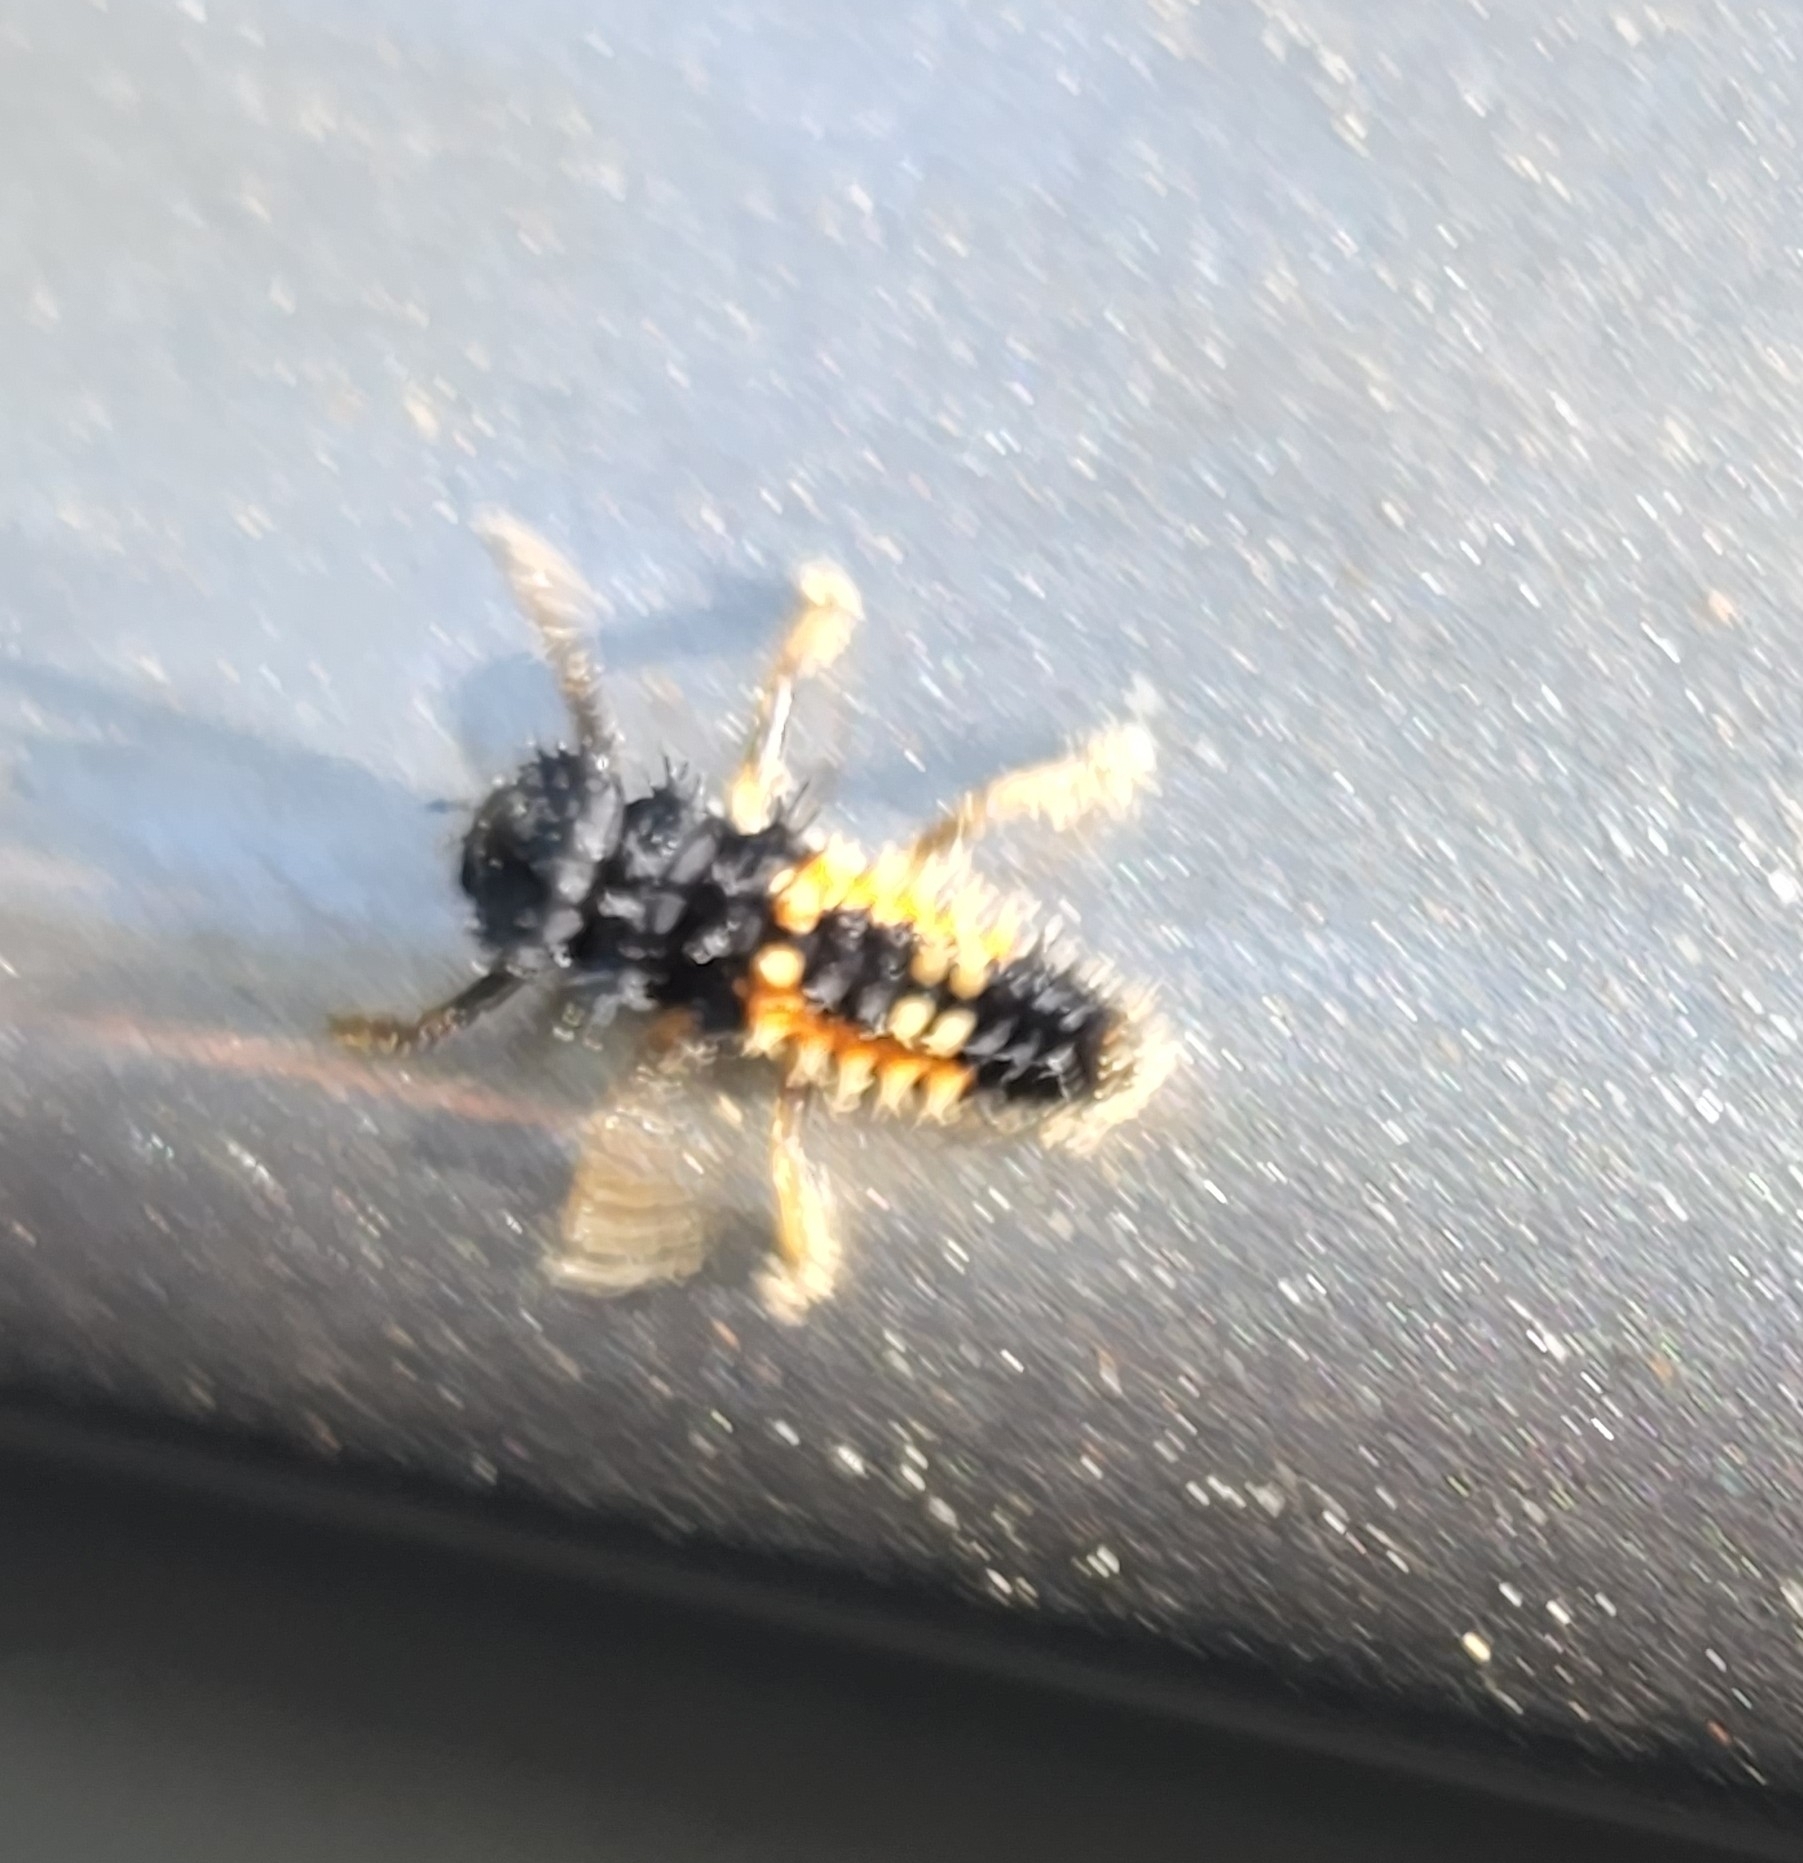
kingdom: Animalia
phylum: Arthropoda
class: Insecta
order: Coleoptera
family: Coccinellidae
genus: Harmonia
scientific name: Harmonia axyridis
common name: Harlequin ladybird
